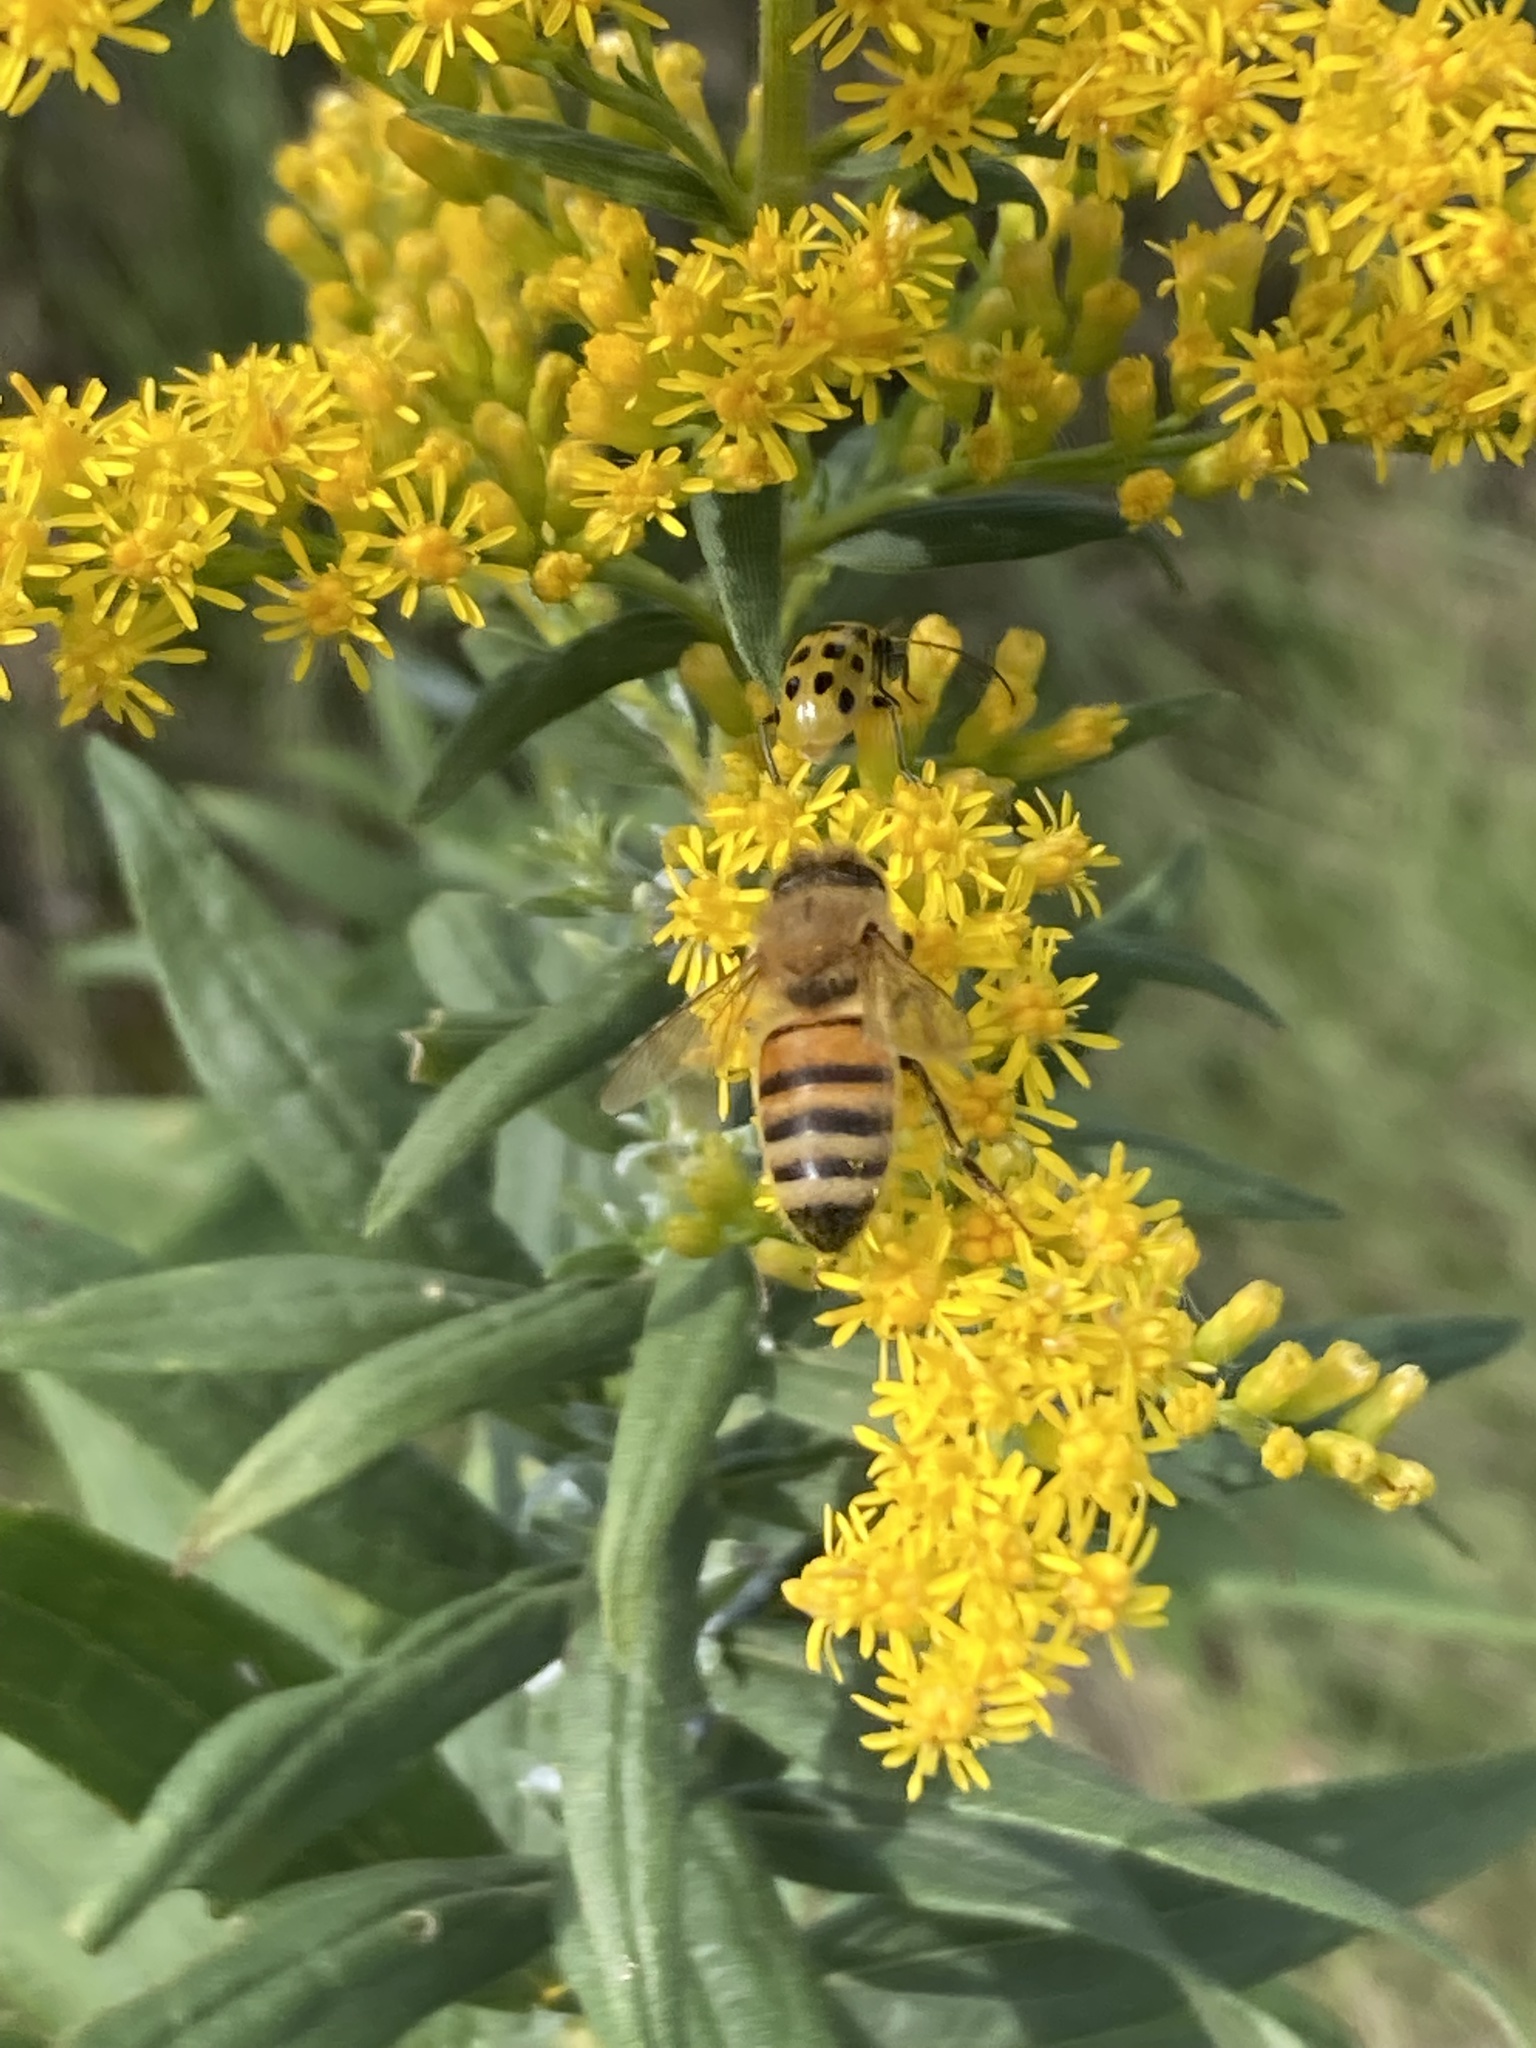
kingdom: Animalia
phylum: Arthropoda
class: Insecta
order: Hymenoptera
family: Apidae
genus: Apis
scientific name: Apis mellifera
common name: Honey bee
